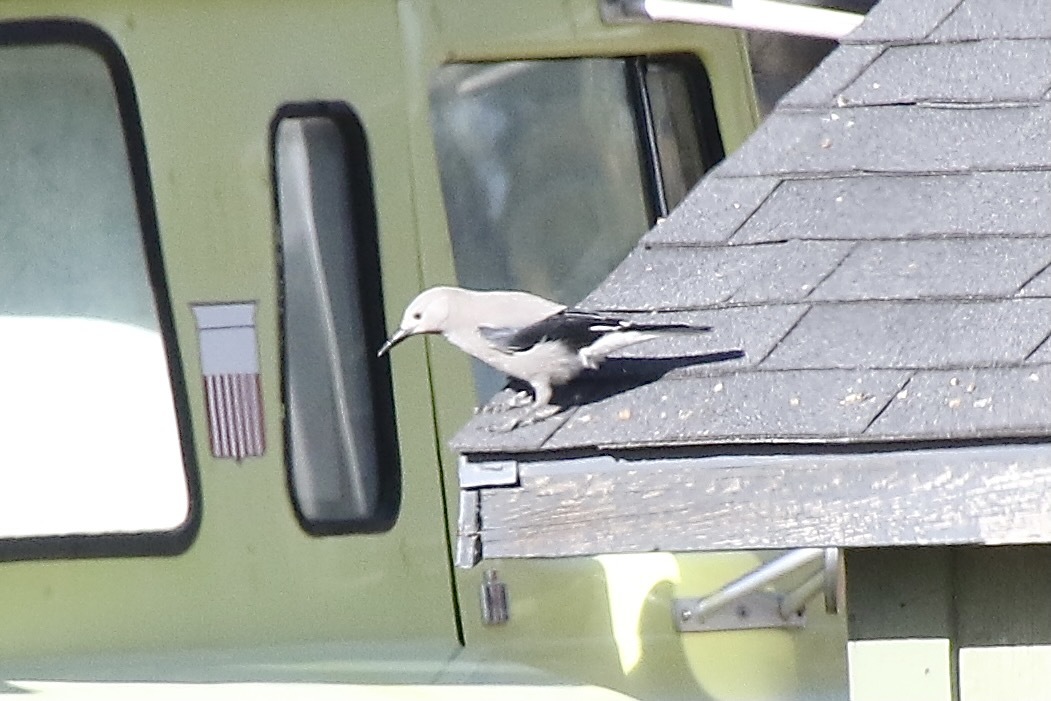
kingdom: Animalia
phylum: Chordata
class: Aves
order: Passeriformes
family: Corvidae
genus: Nucifraga
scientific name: Nucifraga columbiana
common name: Clark's nutcracker
